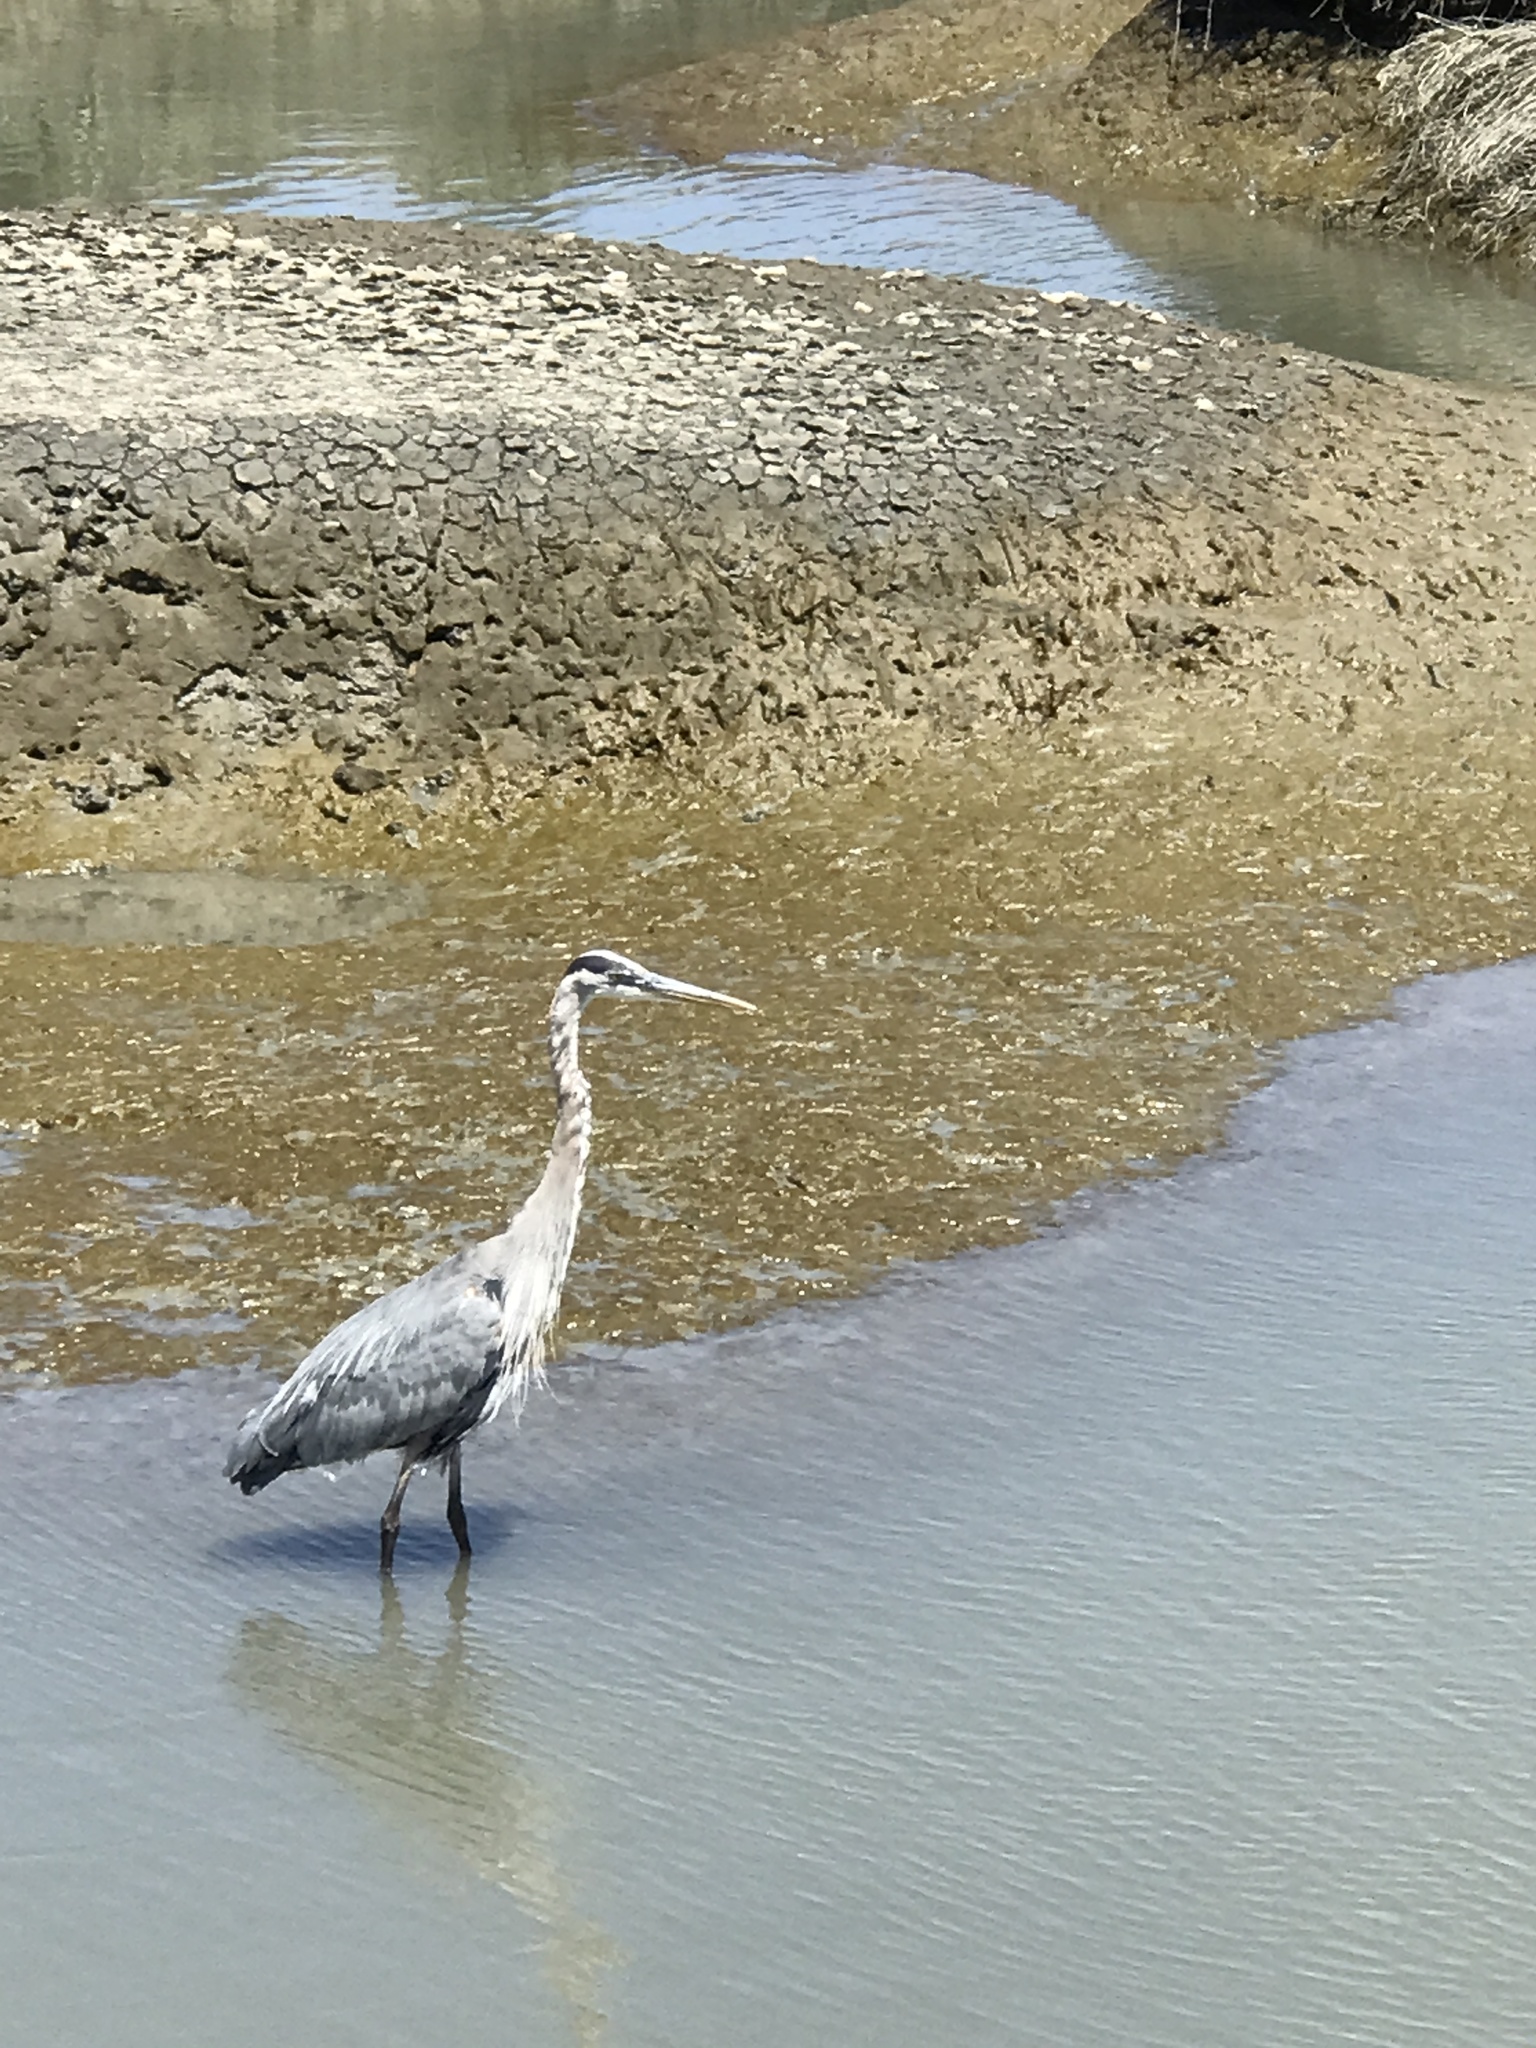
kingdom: Animalia
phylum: Chordata
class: Aves
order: Pelecaniformes
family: Ardeidae
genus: Ardea
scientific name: Ardea herodias
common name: Great blue heron
